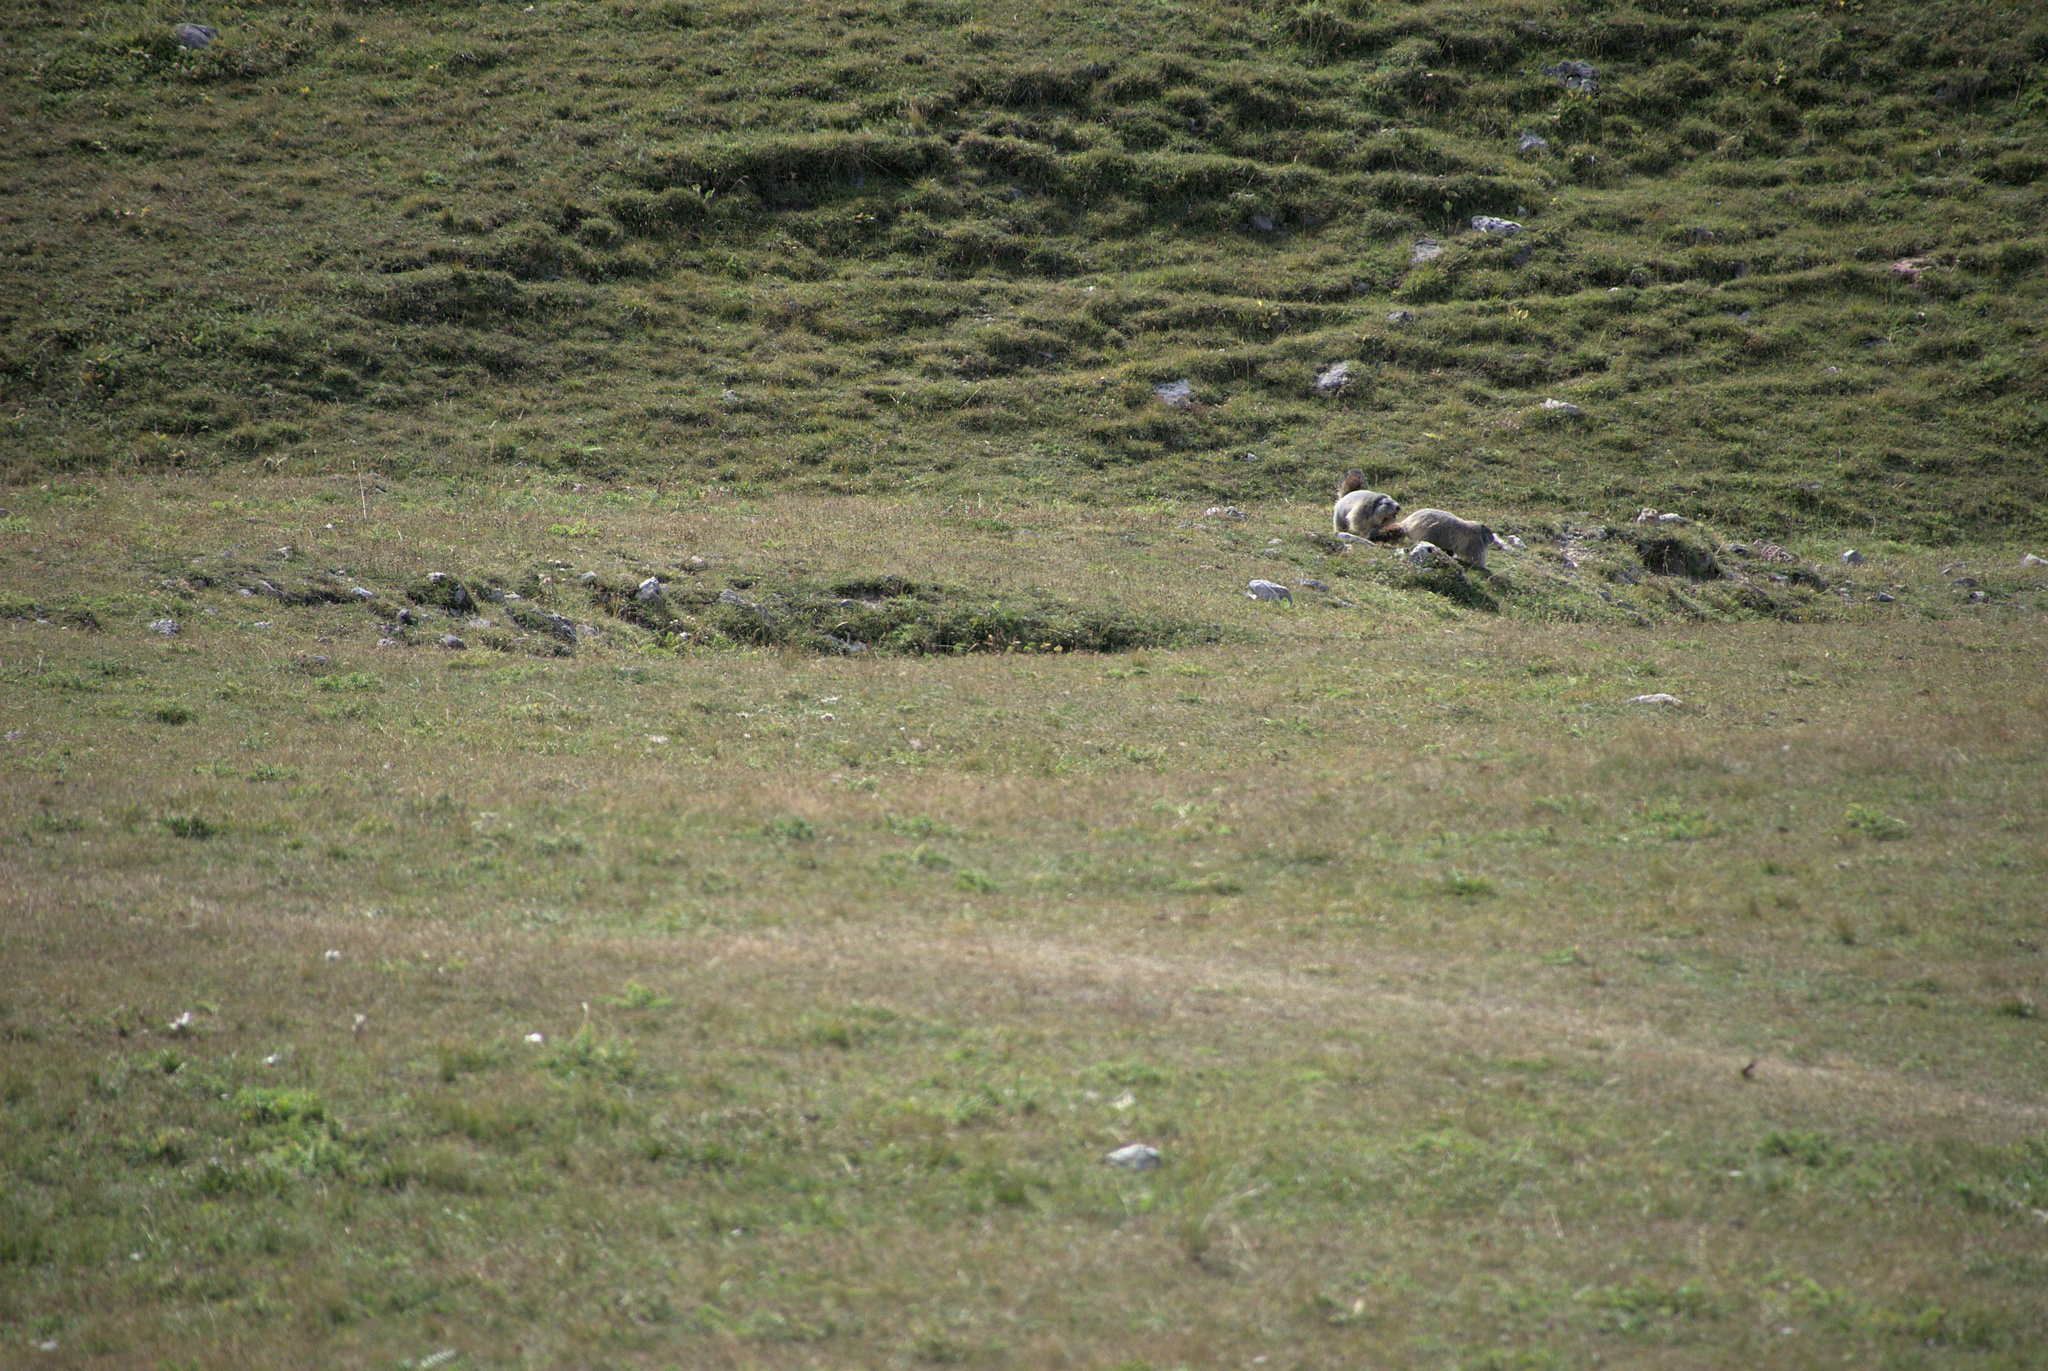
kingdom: Animalia
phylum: Chordata
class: Mammalia
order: Rodentia
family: Sciuridae
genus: Marmota
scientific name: Marmota marmota
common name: Alpine marmot
